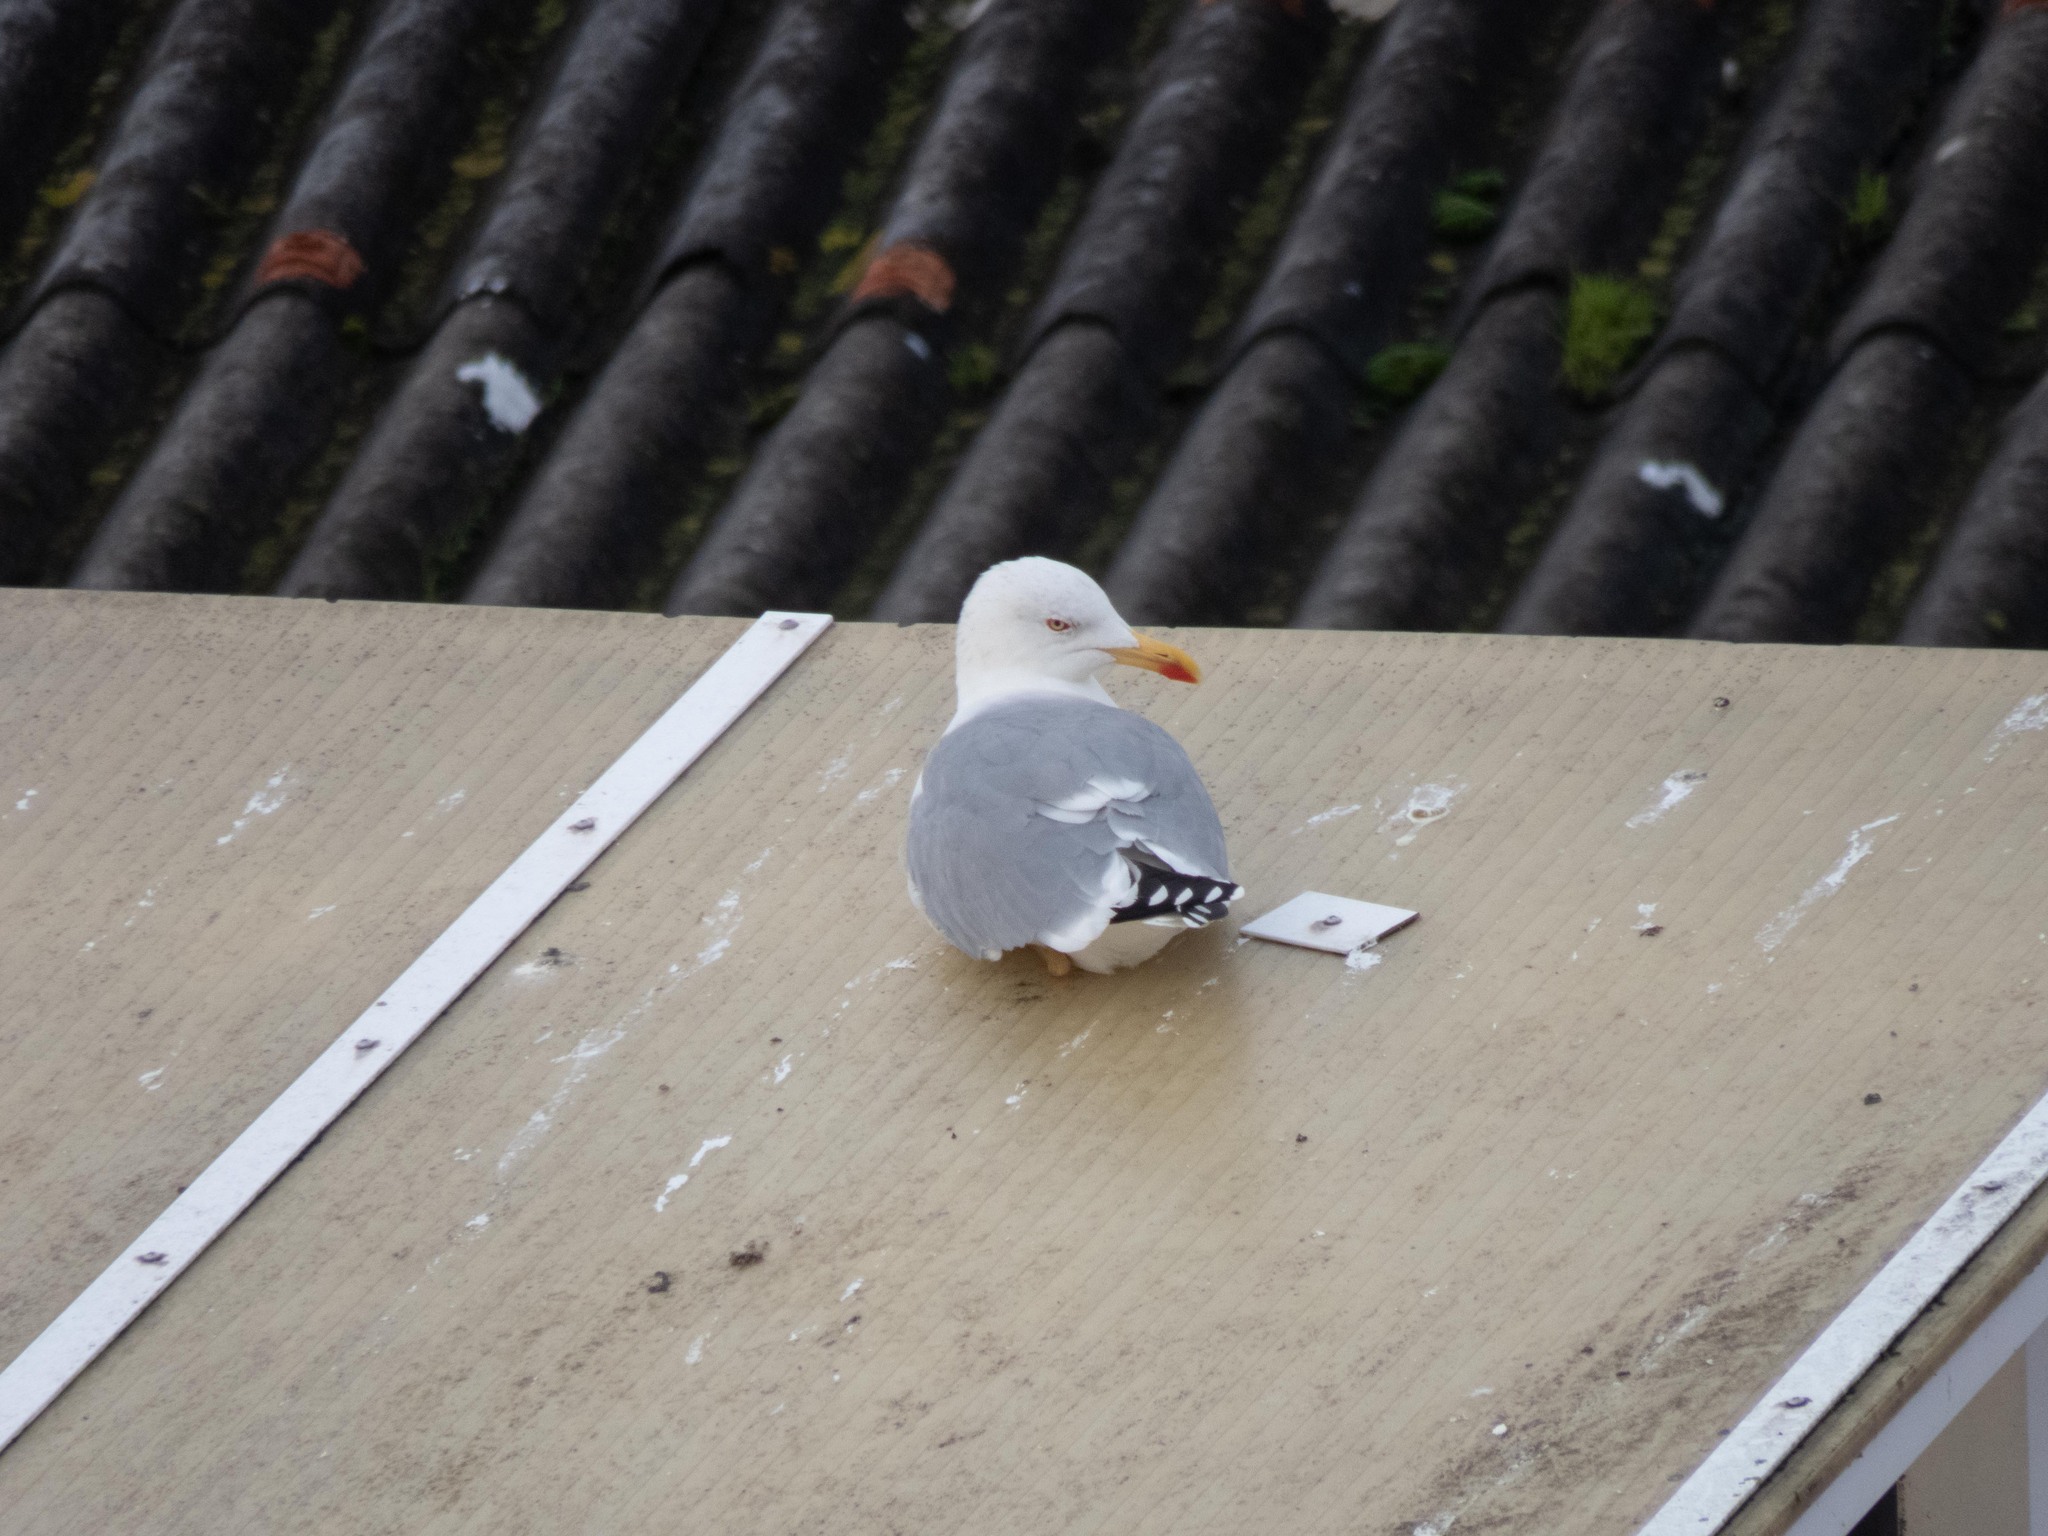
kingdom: Animalia
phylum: Chordata
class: Aves
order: Charadriiformes
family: Laridae
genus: Larus
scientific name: Larus michahellis
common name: Yellow-legged gull
